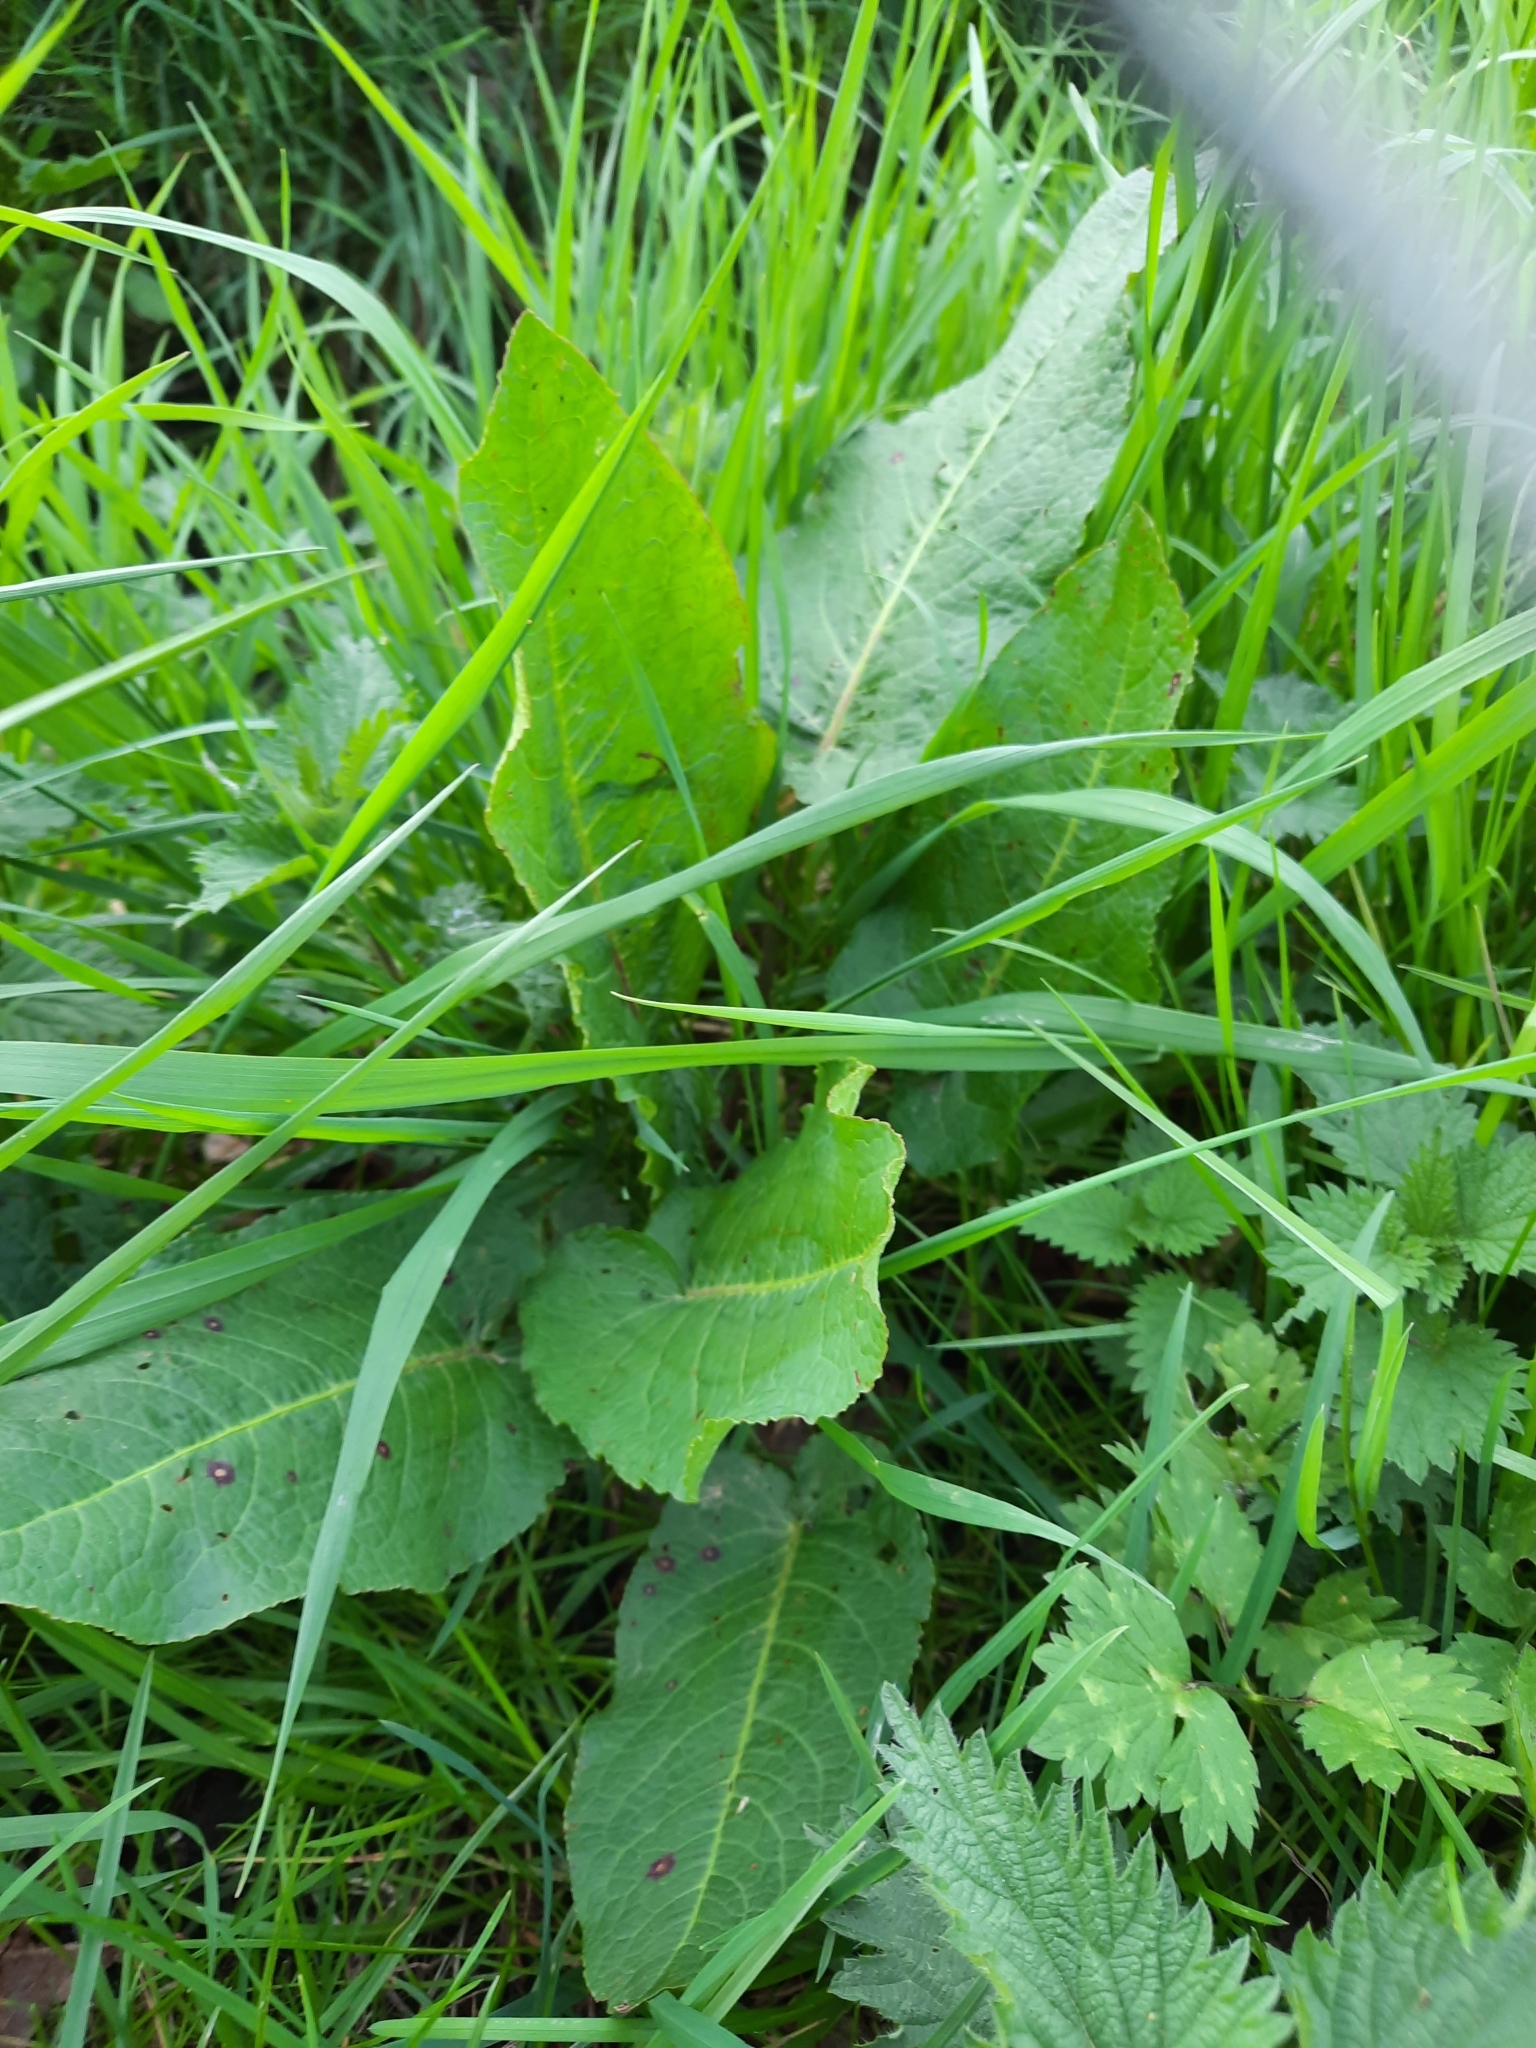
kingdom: Plantae
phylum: Tracheophyta
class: Magnoliopsida
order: Caryophyllales
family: Polygonaceae
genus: Rumex
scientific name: Rumex obtusifolius
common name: Bitter dock
